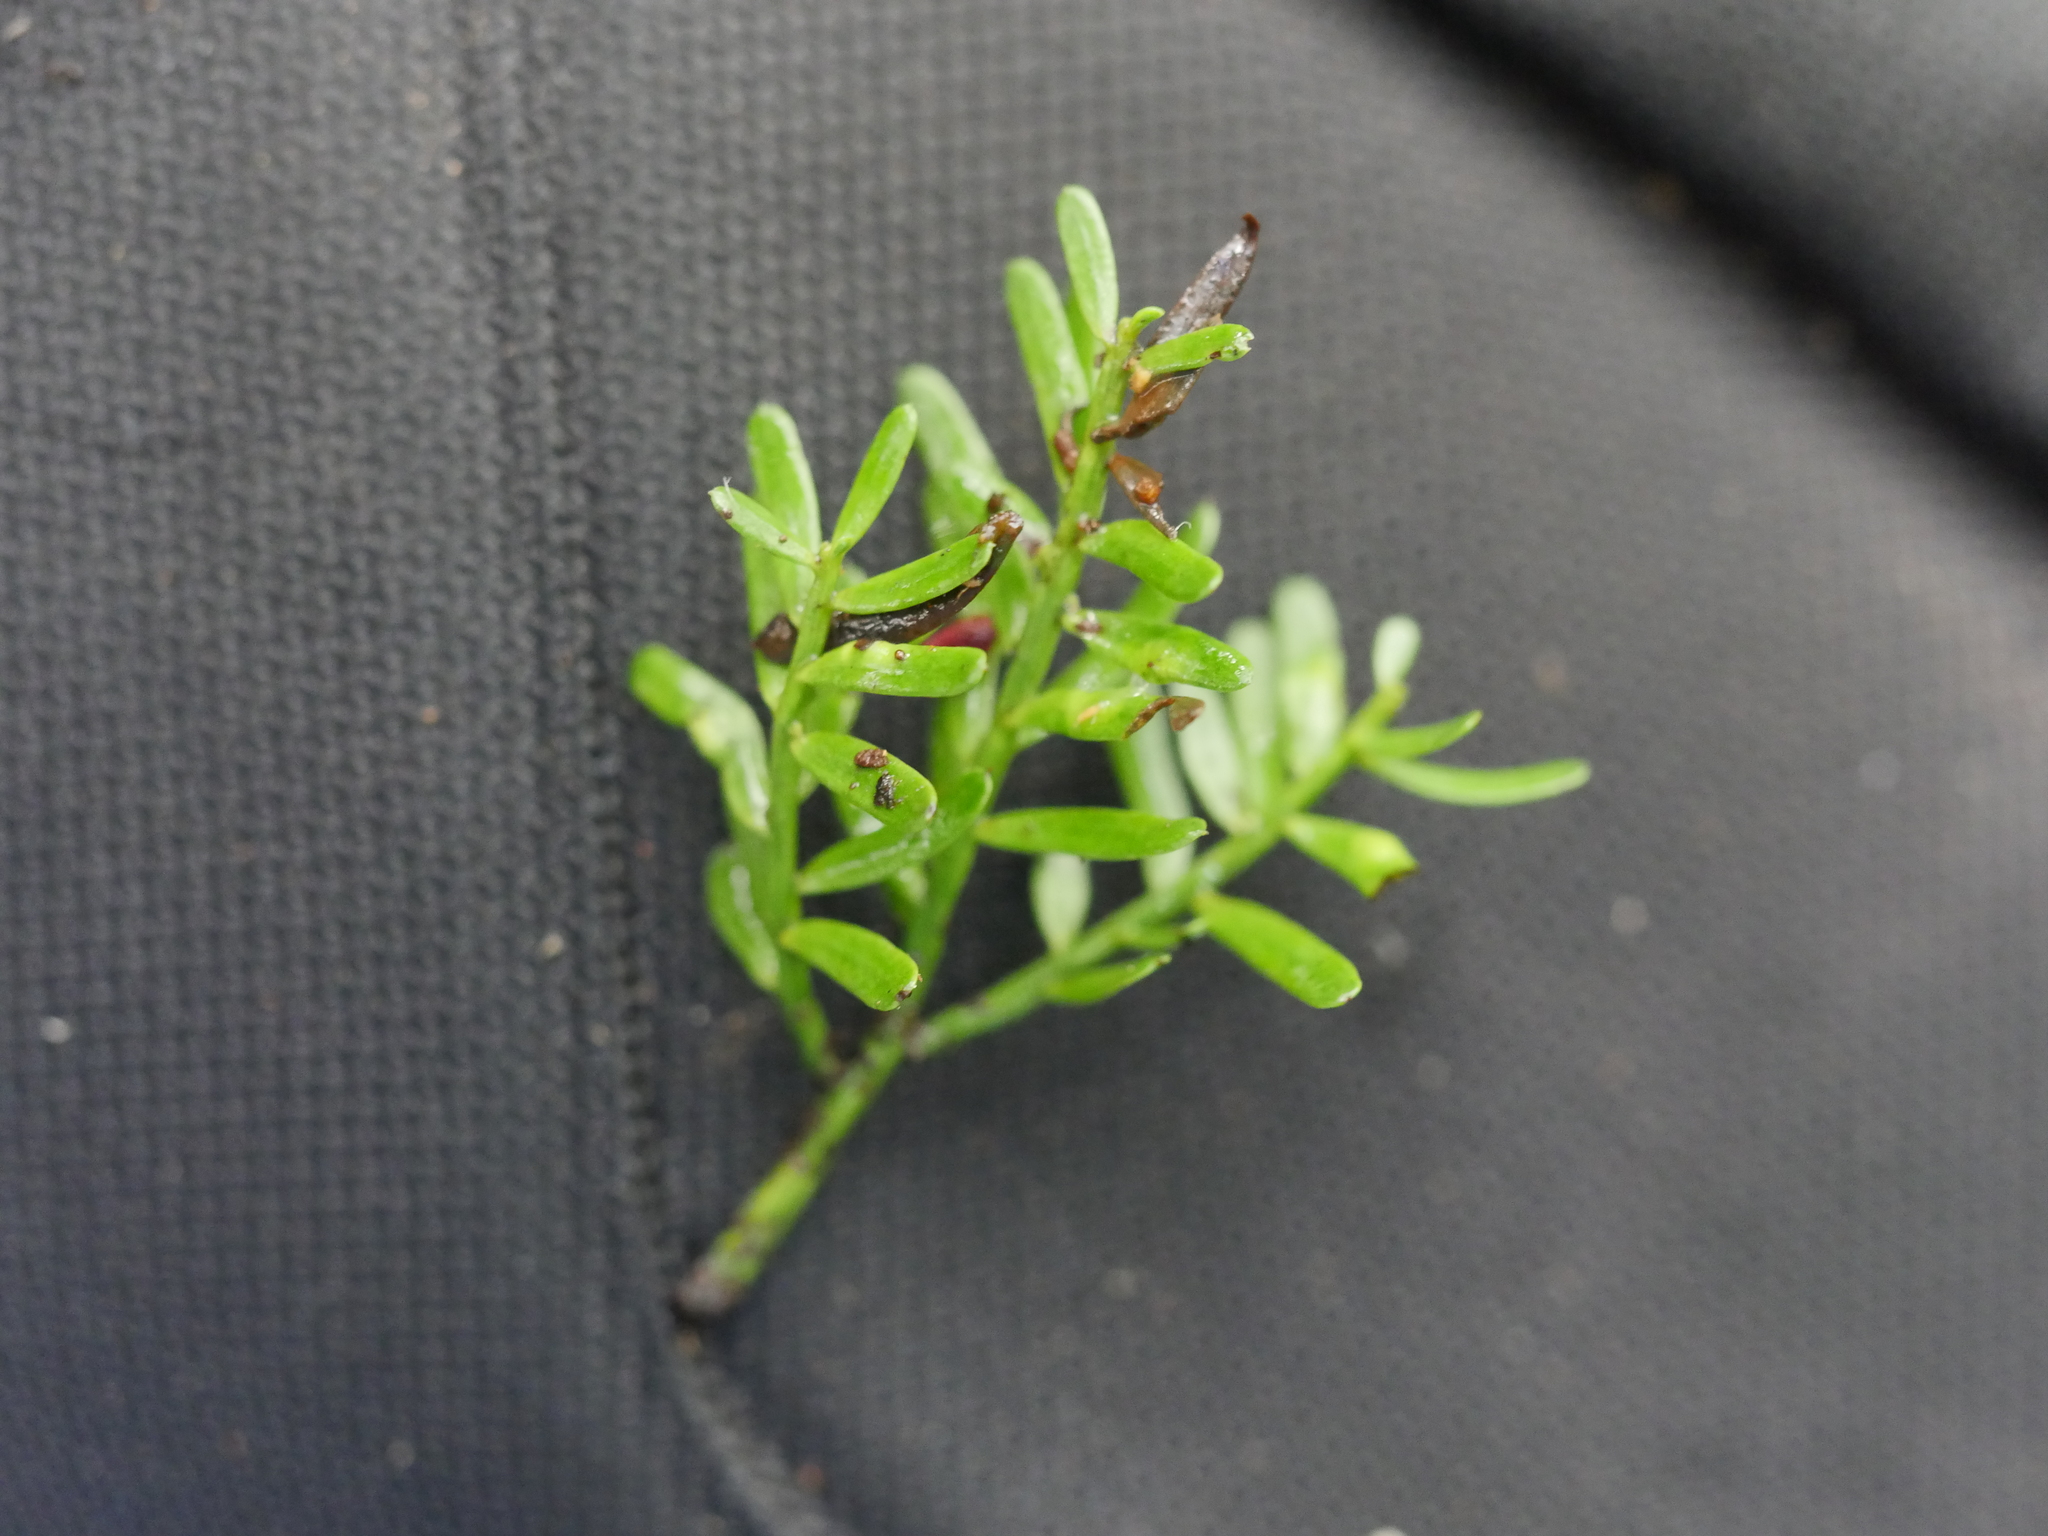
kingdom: Plantae
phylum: Tracheophyta
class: Pinopsida
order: Pinales
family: Podocarpaceae
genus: Prumnopitys
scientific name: Prumnopitys taxifolia
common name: Matai
